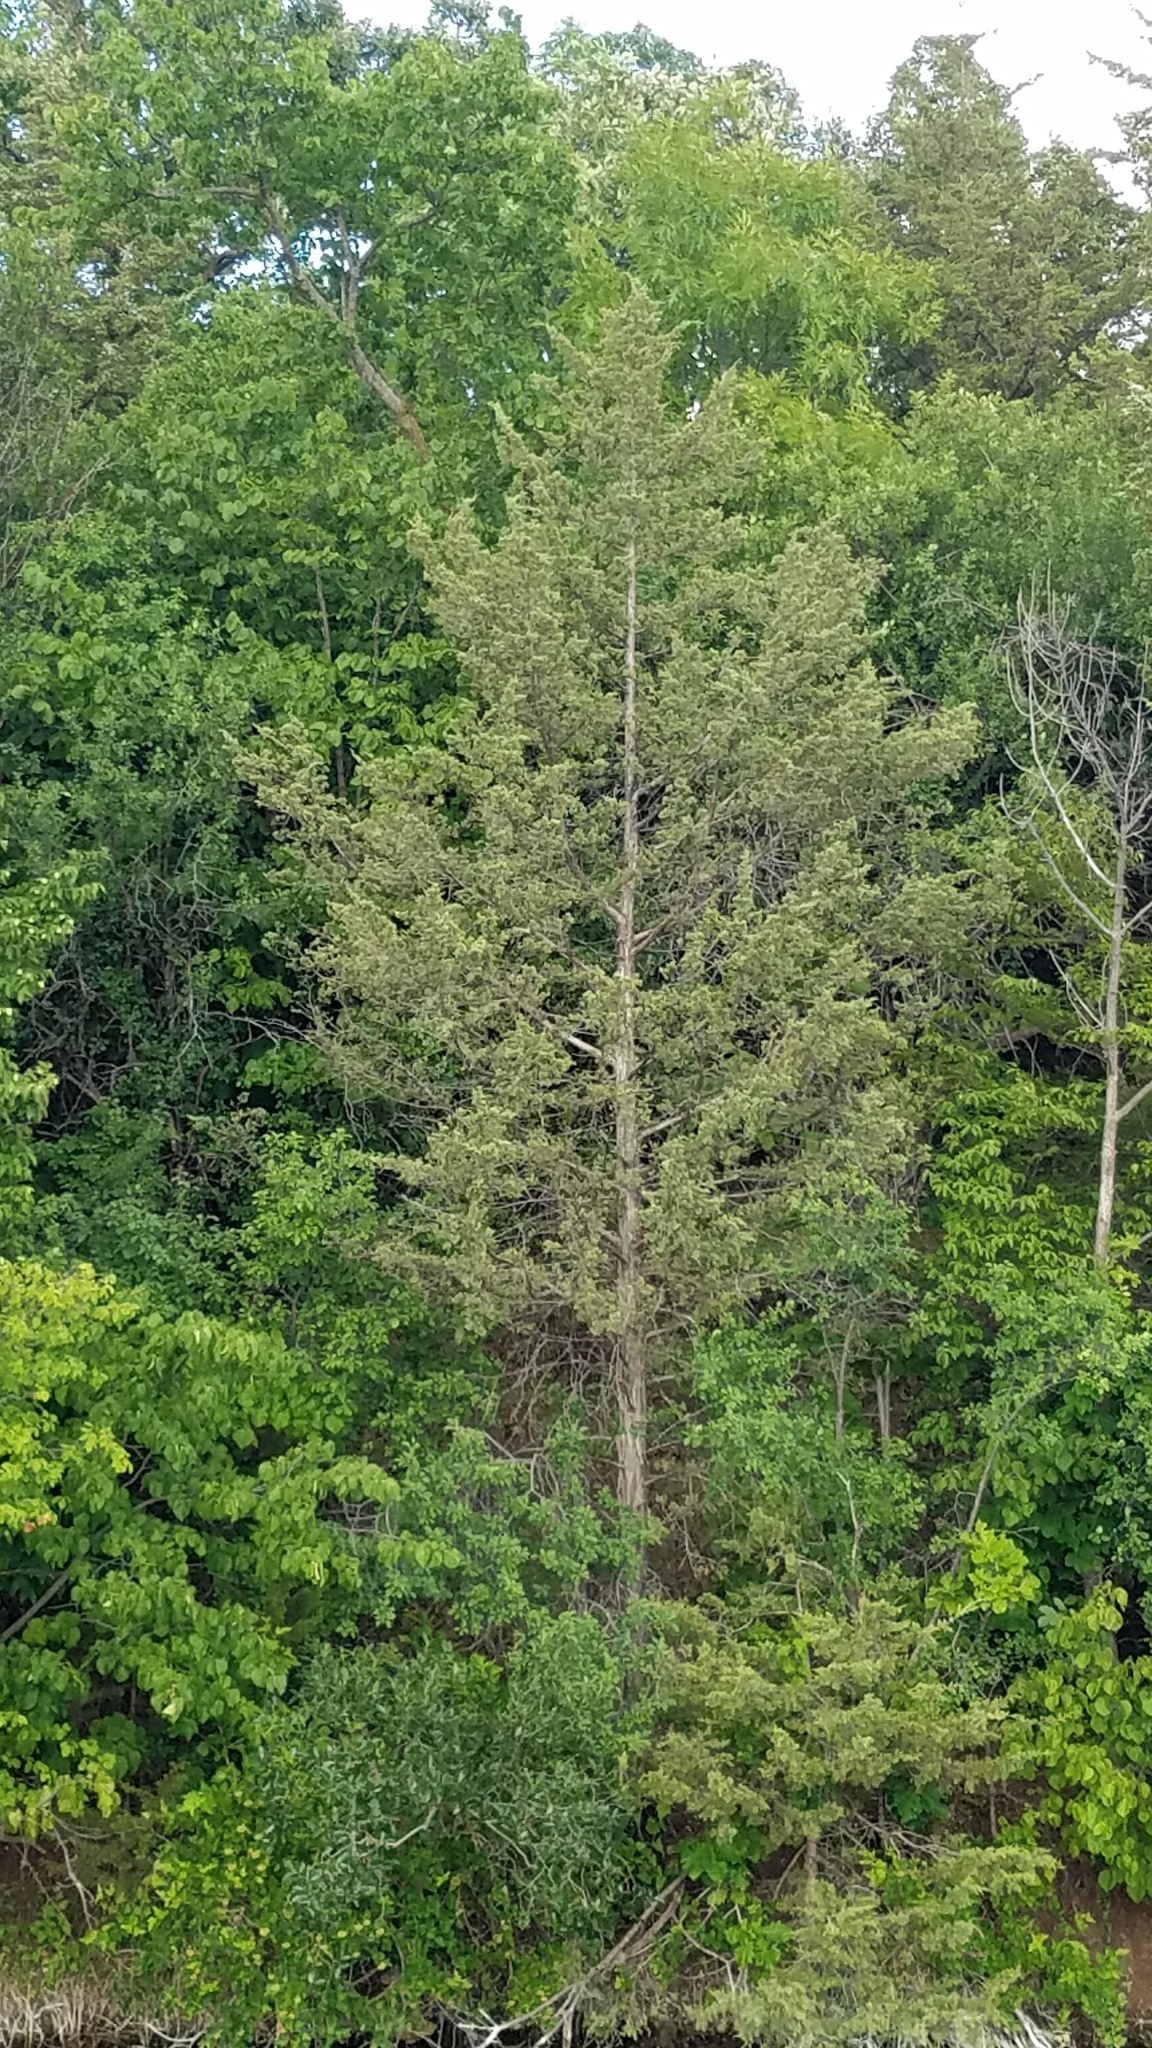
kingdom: Plantae
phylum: Tracheophyta
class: Pinopsida
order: Pinales
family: Cupressaceae
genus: Juniperus
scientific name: Juniperus virginiana
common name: Red juniper
